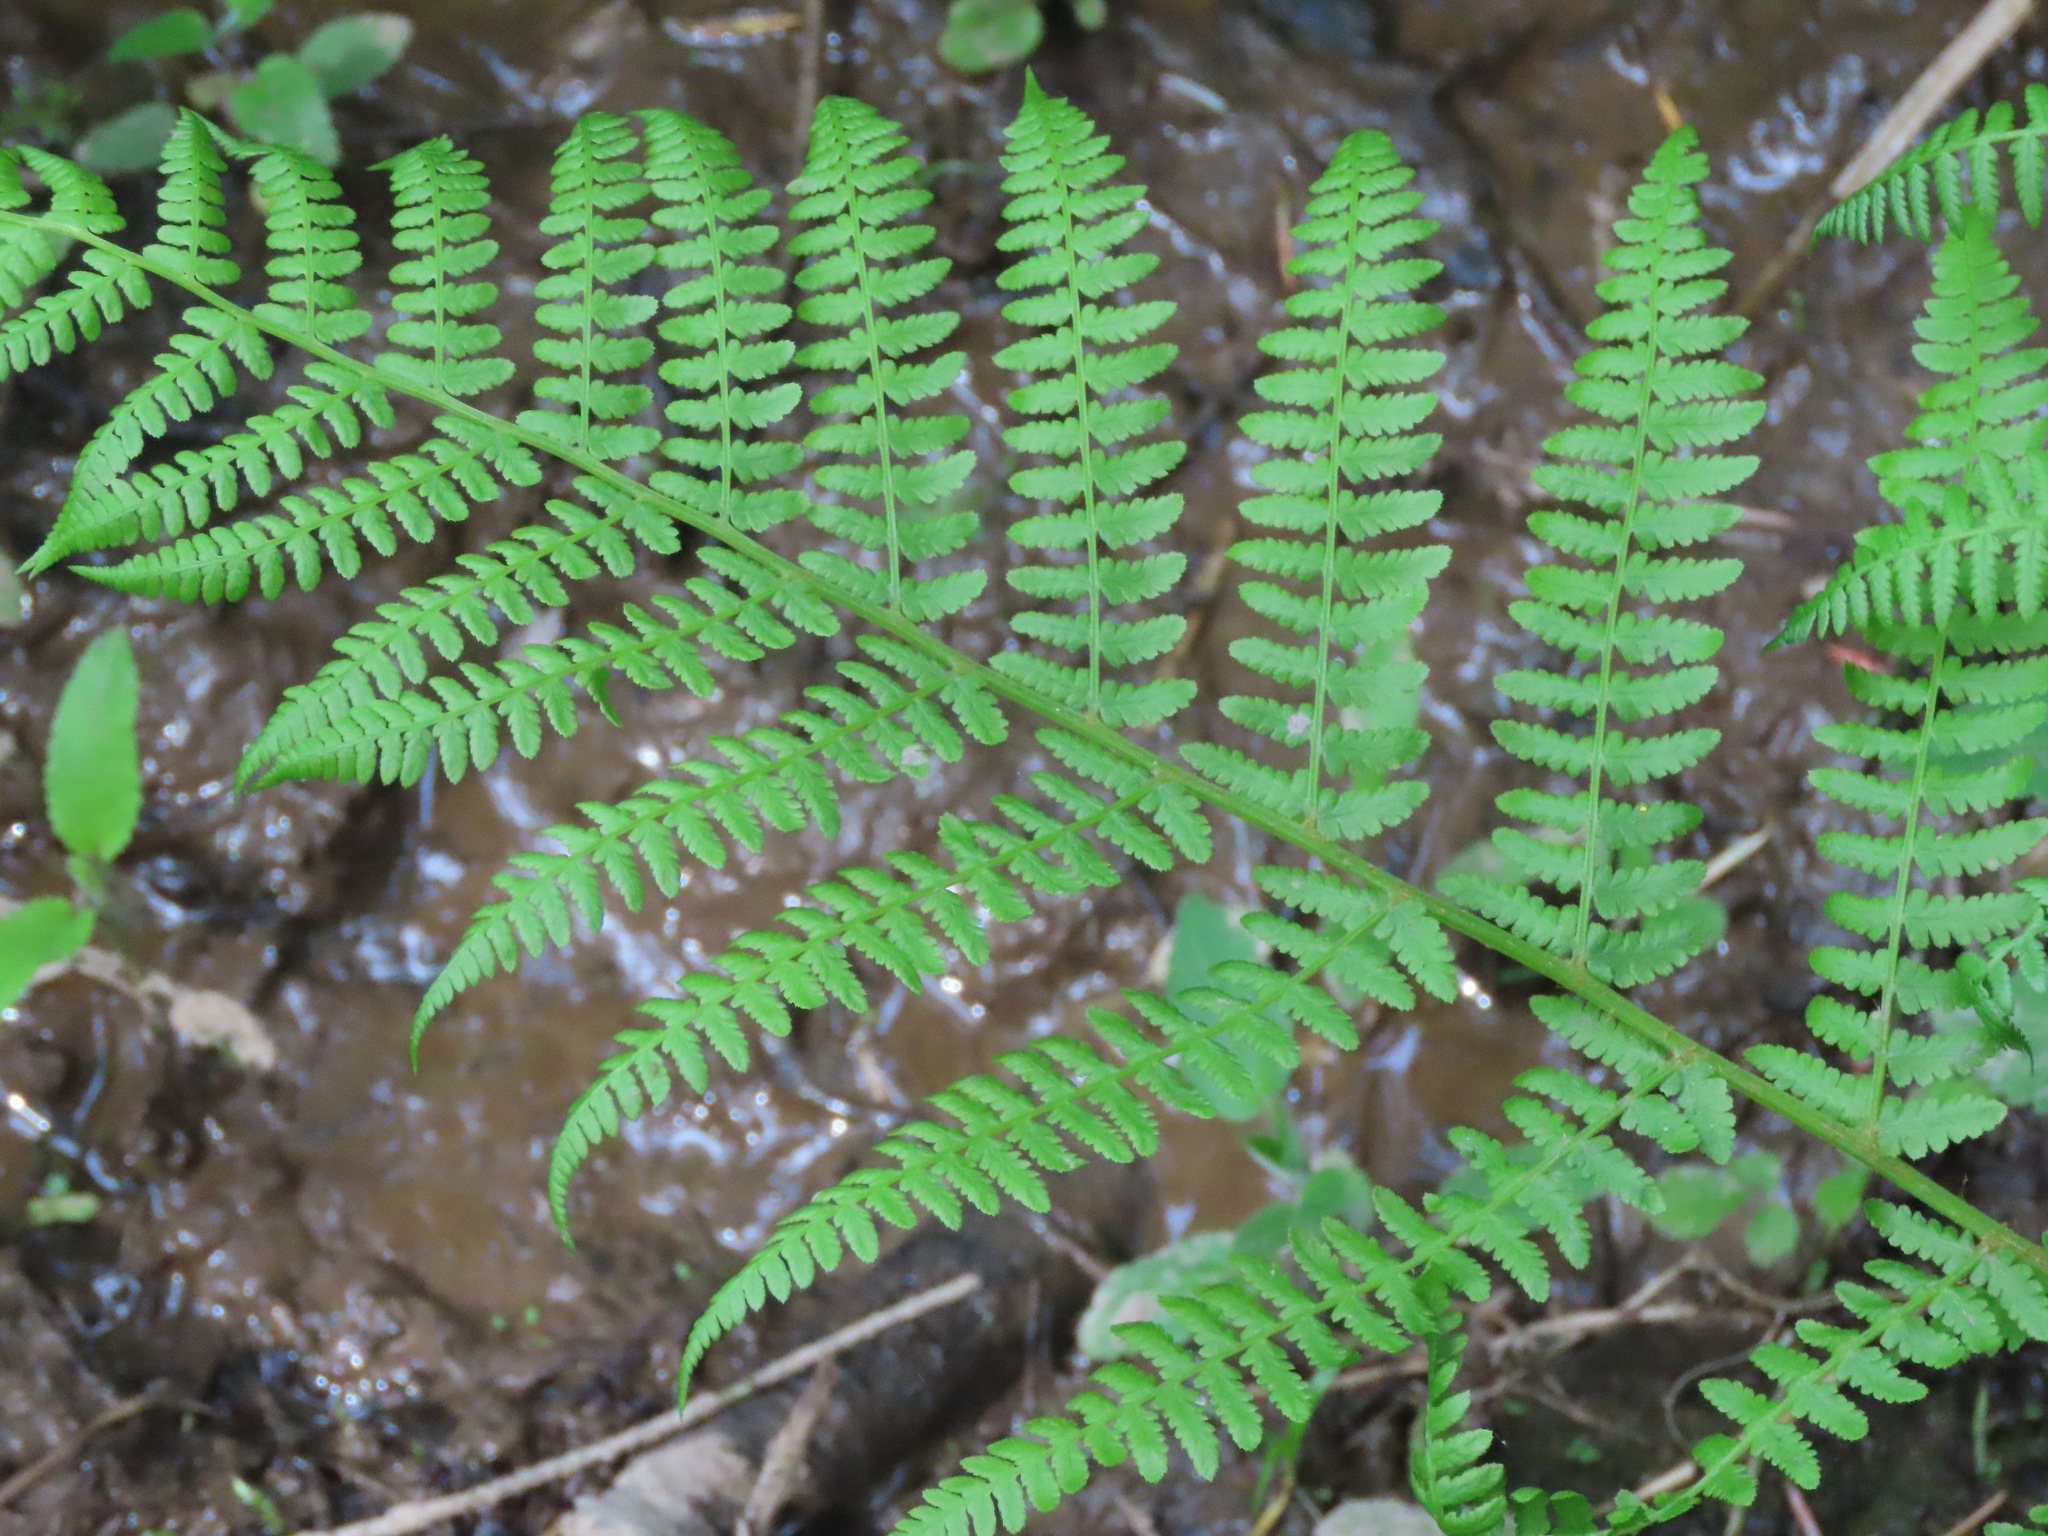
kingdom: Plantae
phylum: Tracheophyta
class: Polypodiopsida
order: Polypodiales
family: Athyriaceae
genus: Athyrium
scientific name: Athyrium filix-femina
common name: Lady fern
